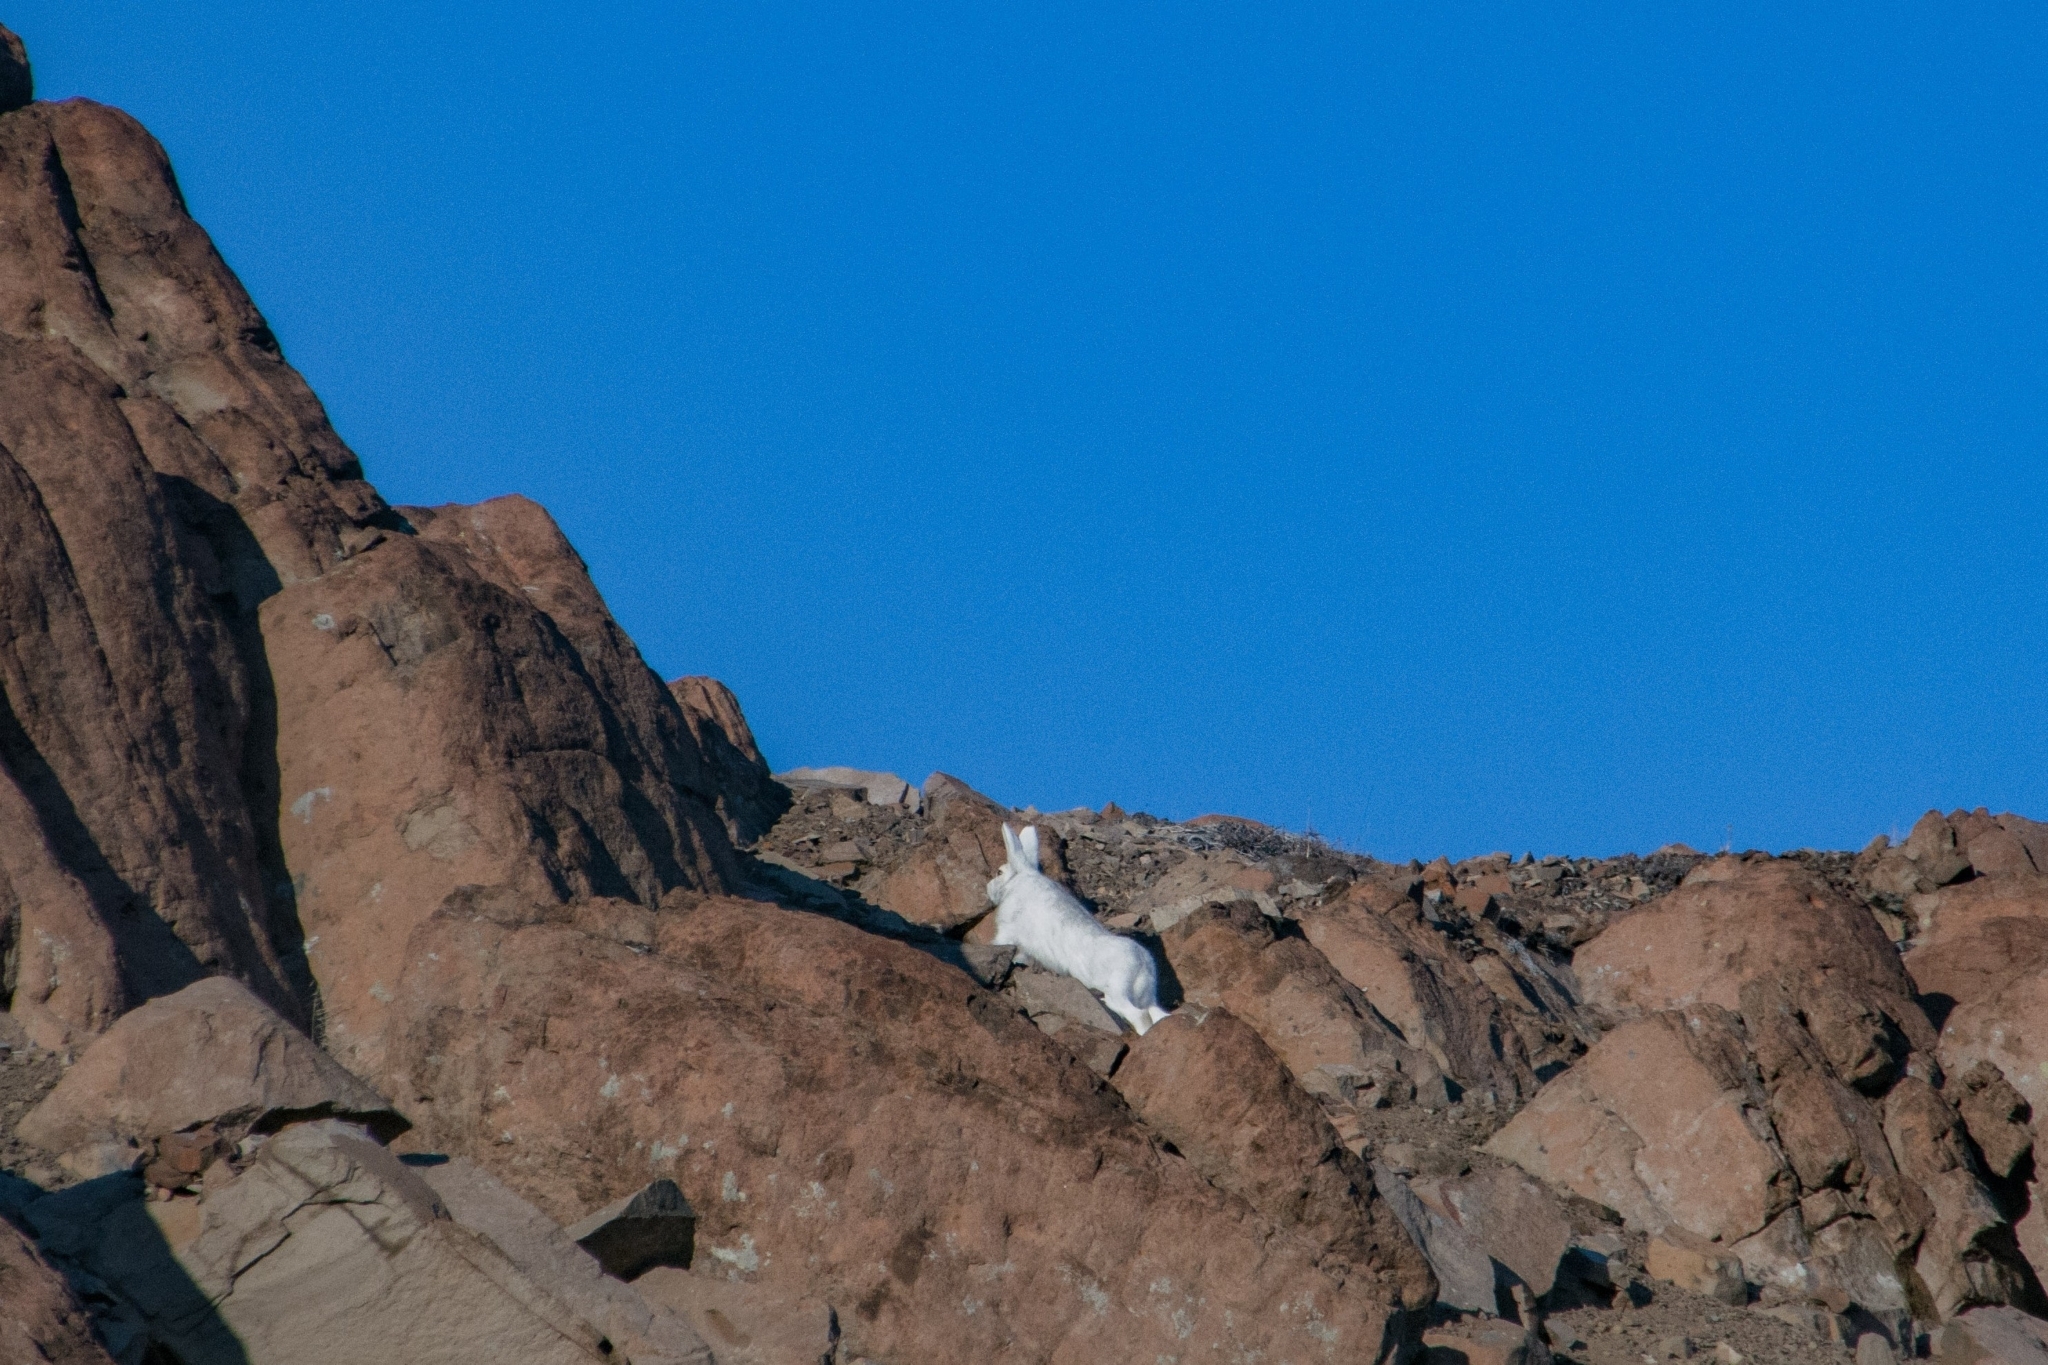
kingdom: Animalia
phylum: Chordata
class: Mammalia
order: Lagomorpha
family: Leporidae
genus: Lepus
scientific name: Lepus timidus
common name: Mountain hare
